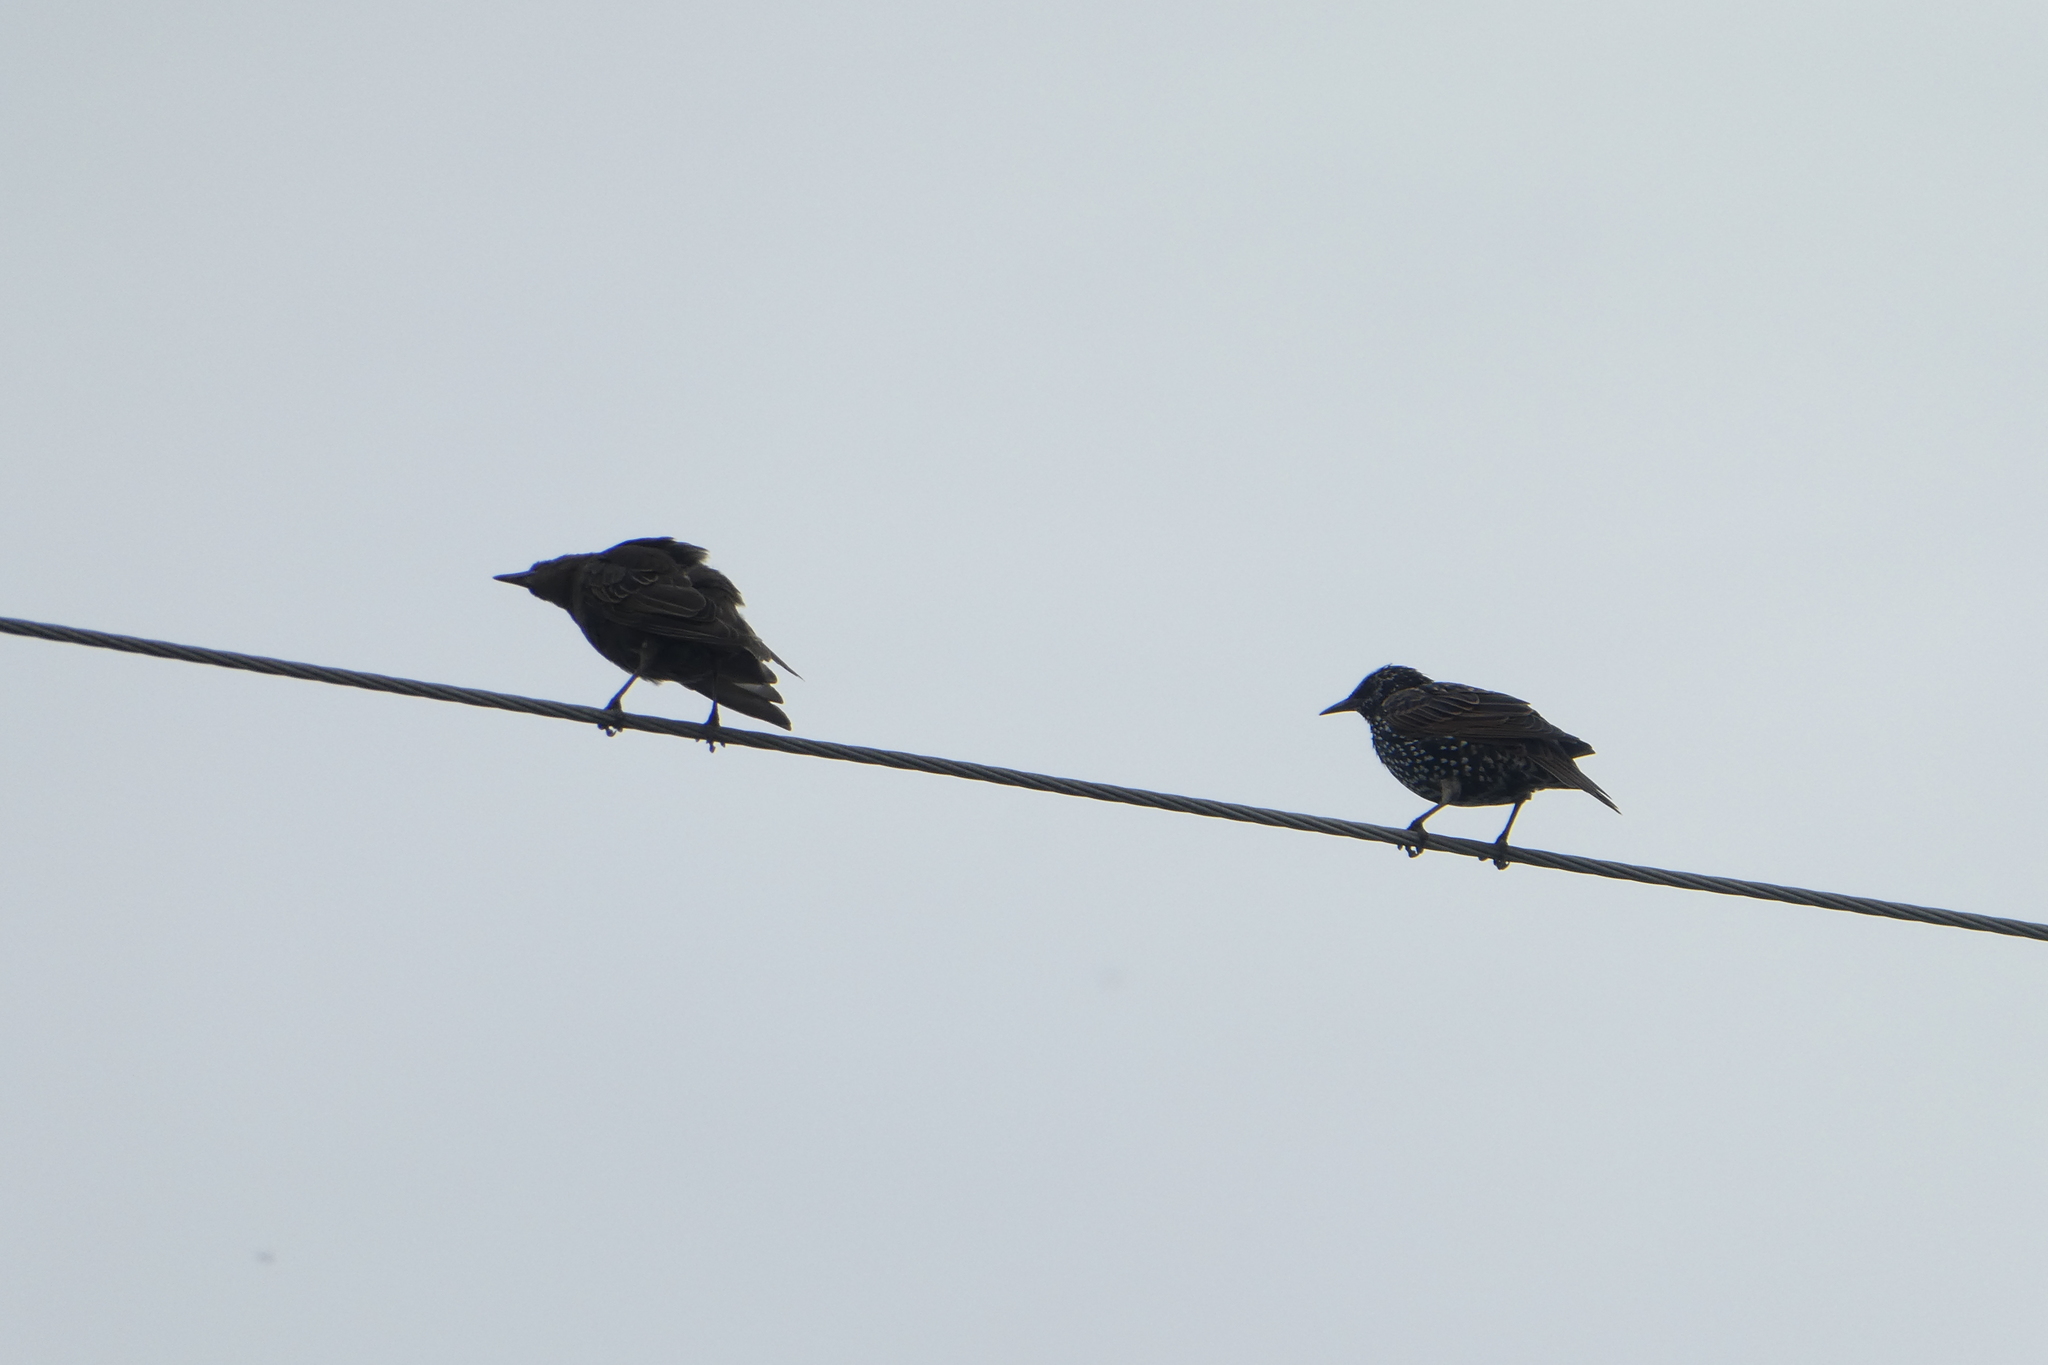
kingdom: Animalia
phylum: Chordata
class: Aves
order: Passeriformes
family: Sturnidae
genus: Sturnus
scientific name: Sturnus vulgaris
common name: Common starling
